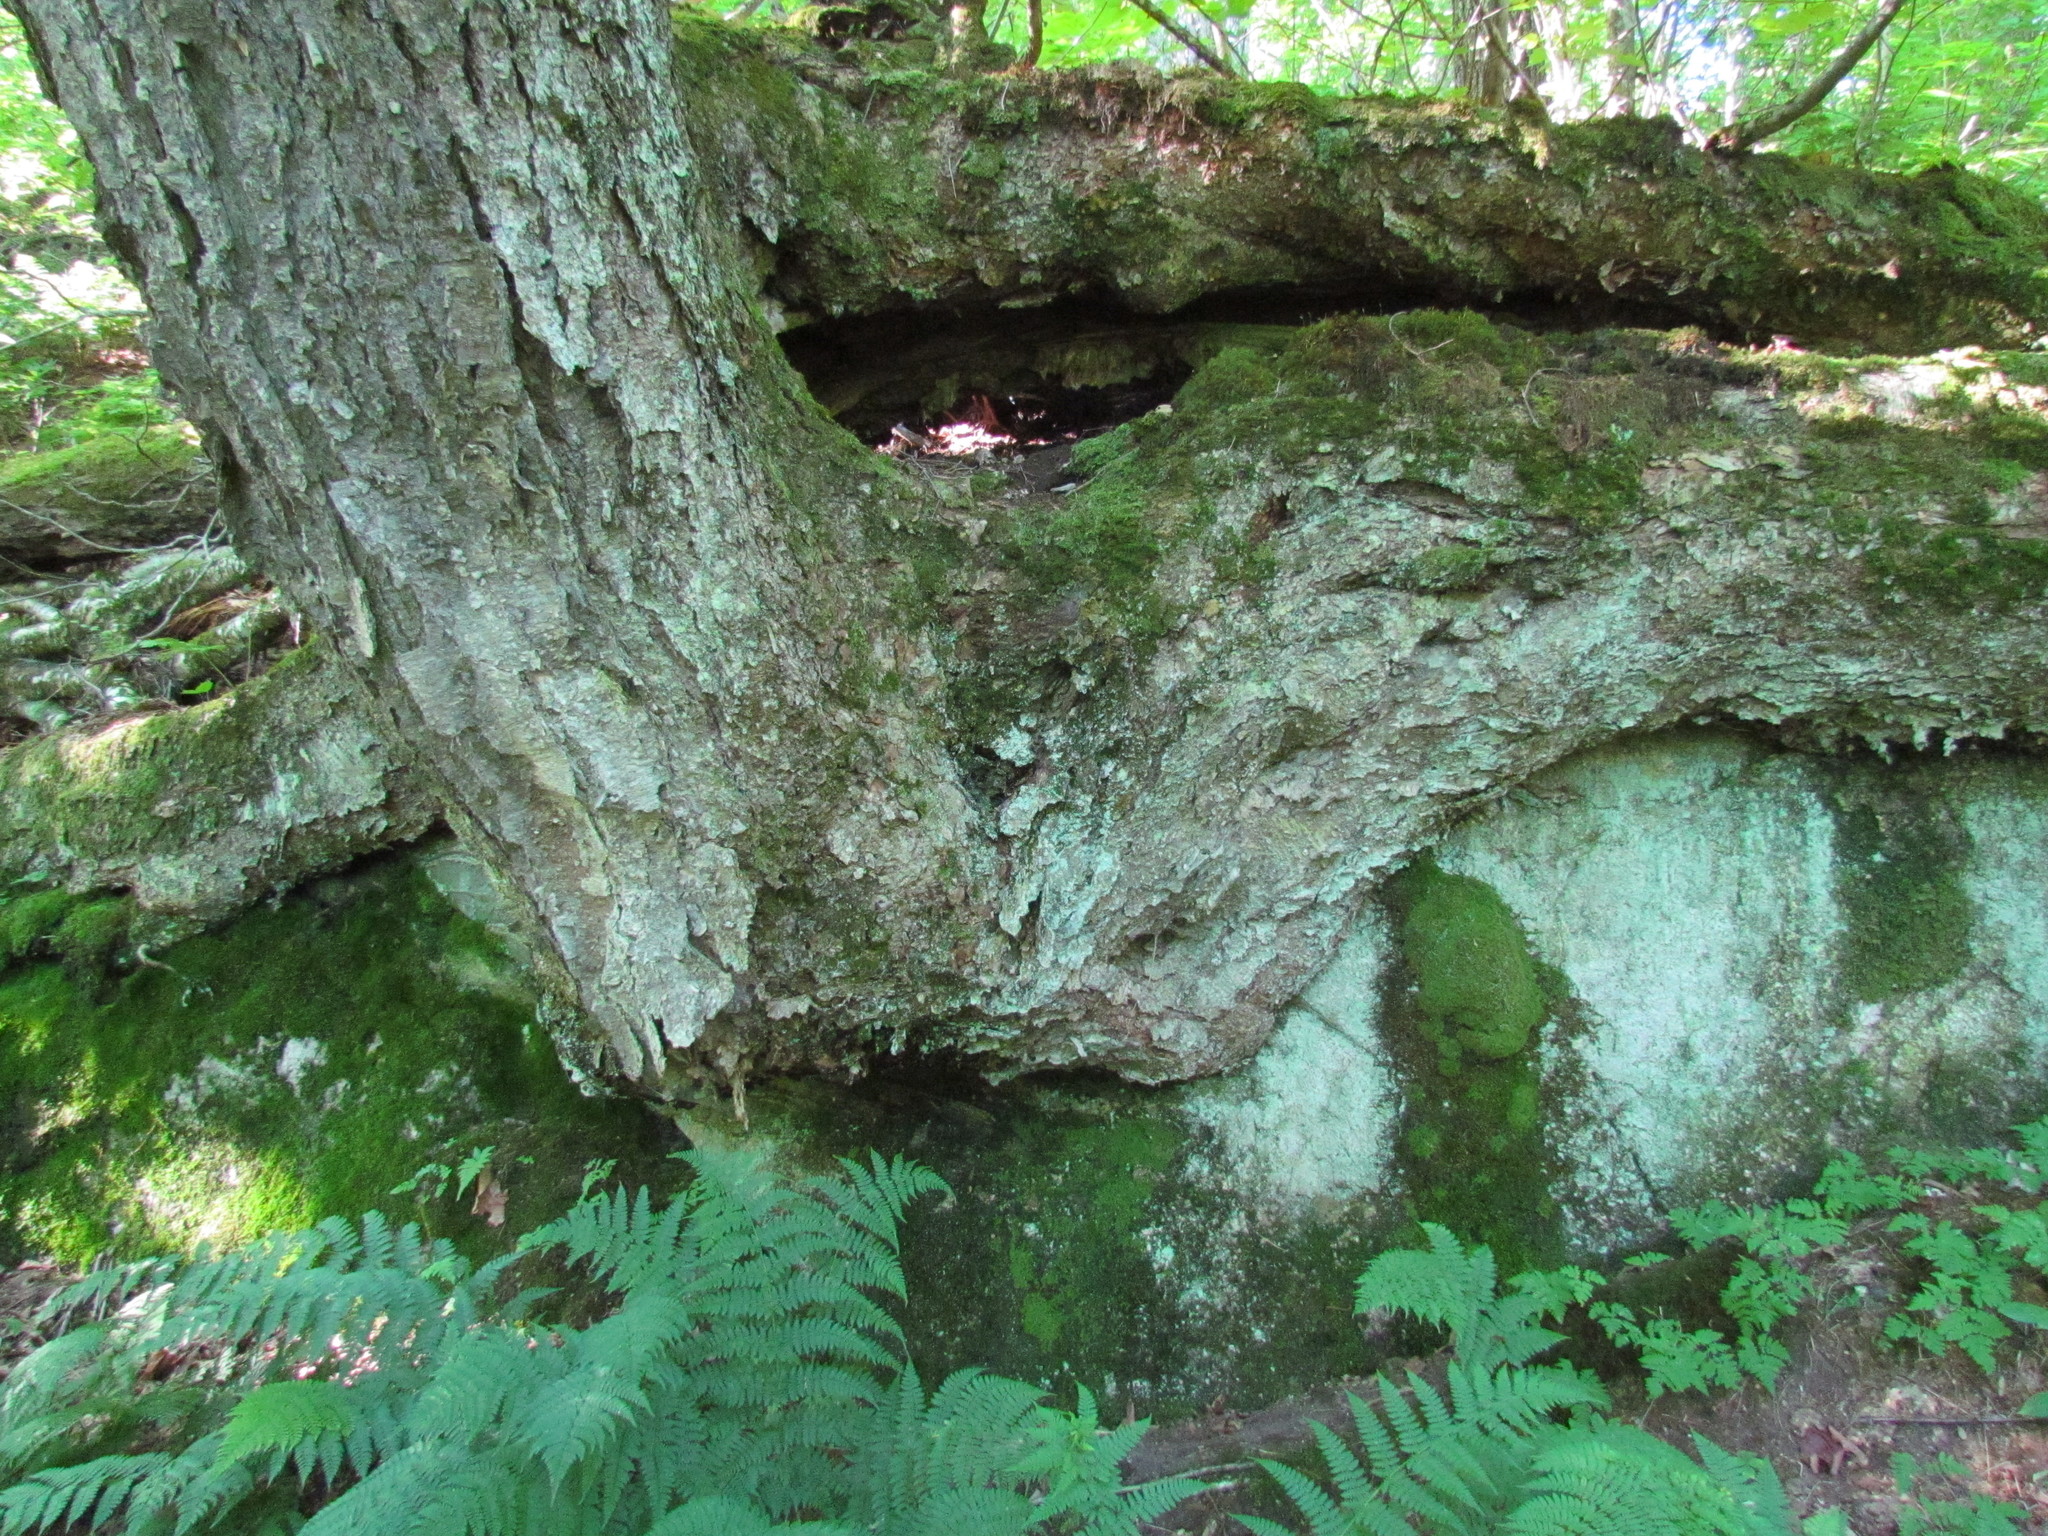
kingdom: Plantae
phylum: Tracheophyta
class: Magnoliopsida
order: Fagales
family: Betulaceae
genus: Betula
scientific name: Betula alleghaniensis
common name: Yellow birch
